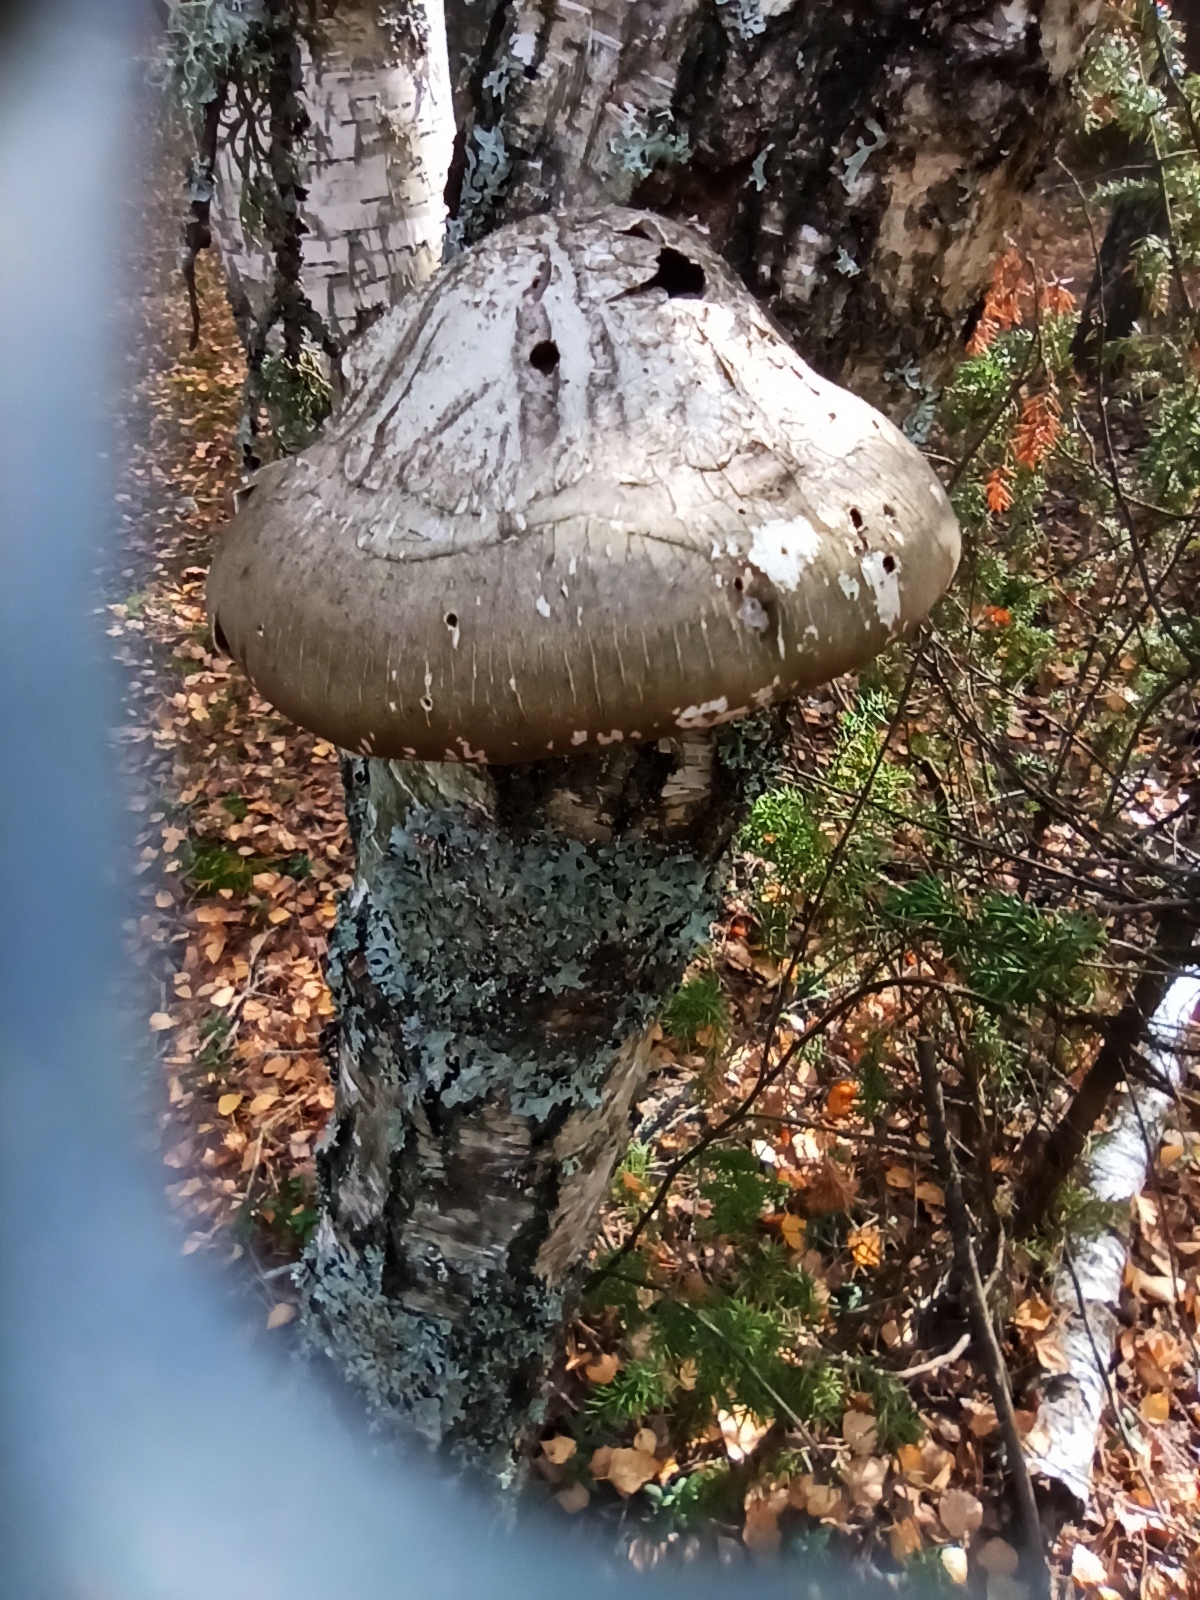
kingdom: Fungi
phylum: Basidiomycota
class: Agaricomycetes
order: Polyporales
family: Fomitopsidaceae
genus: Fomitopsis
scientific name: Fomitopsis betulina
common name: Birch polypore
